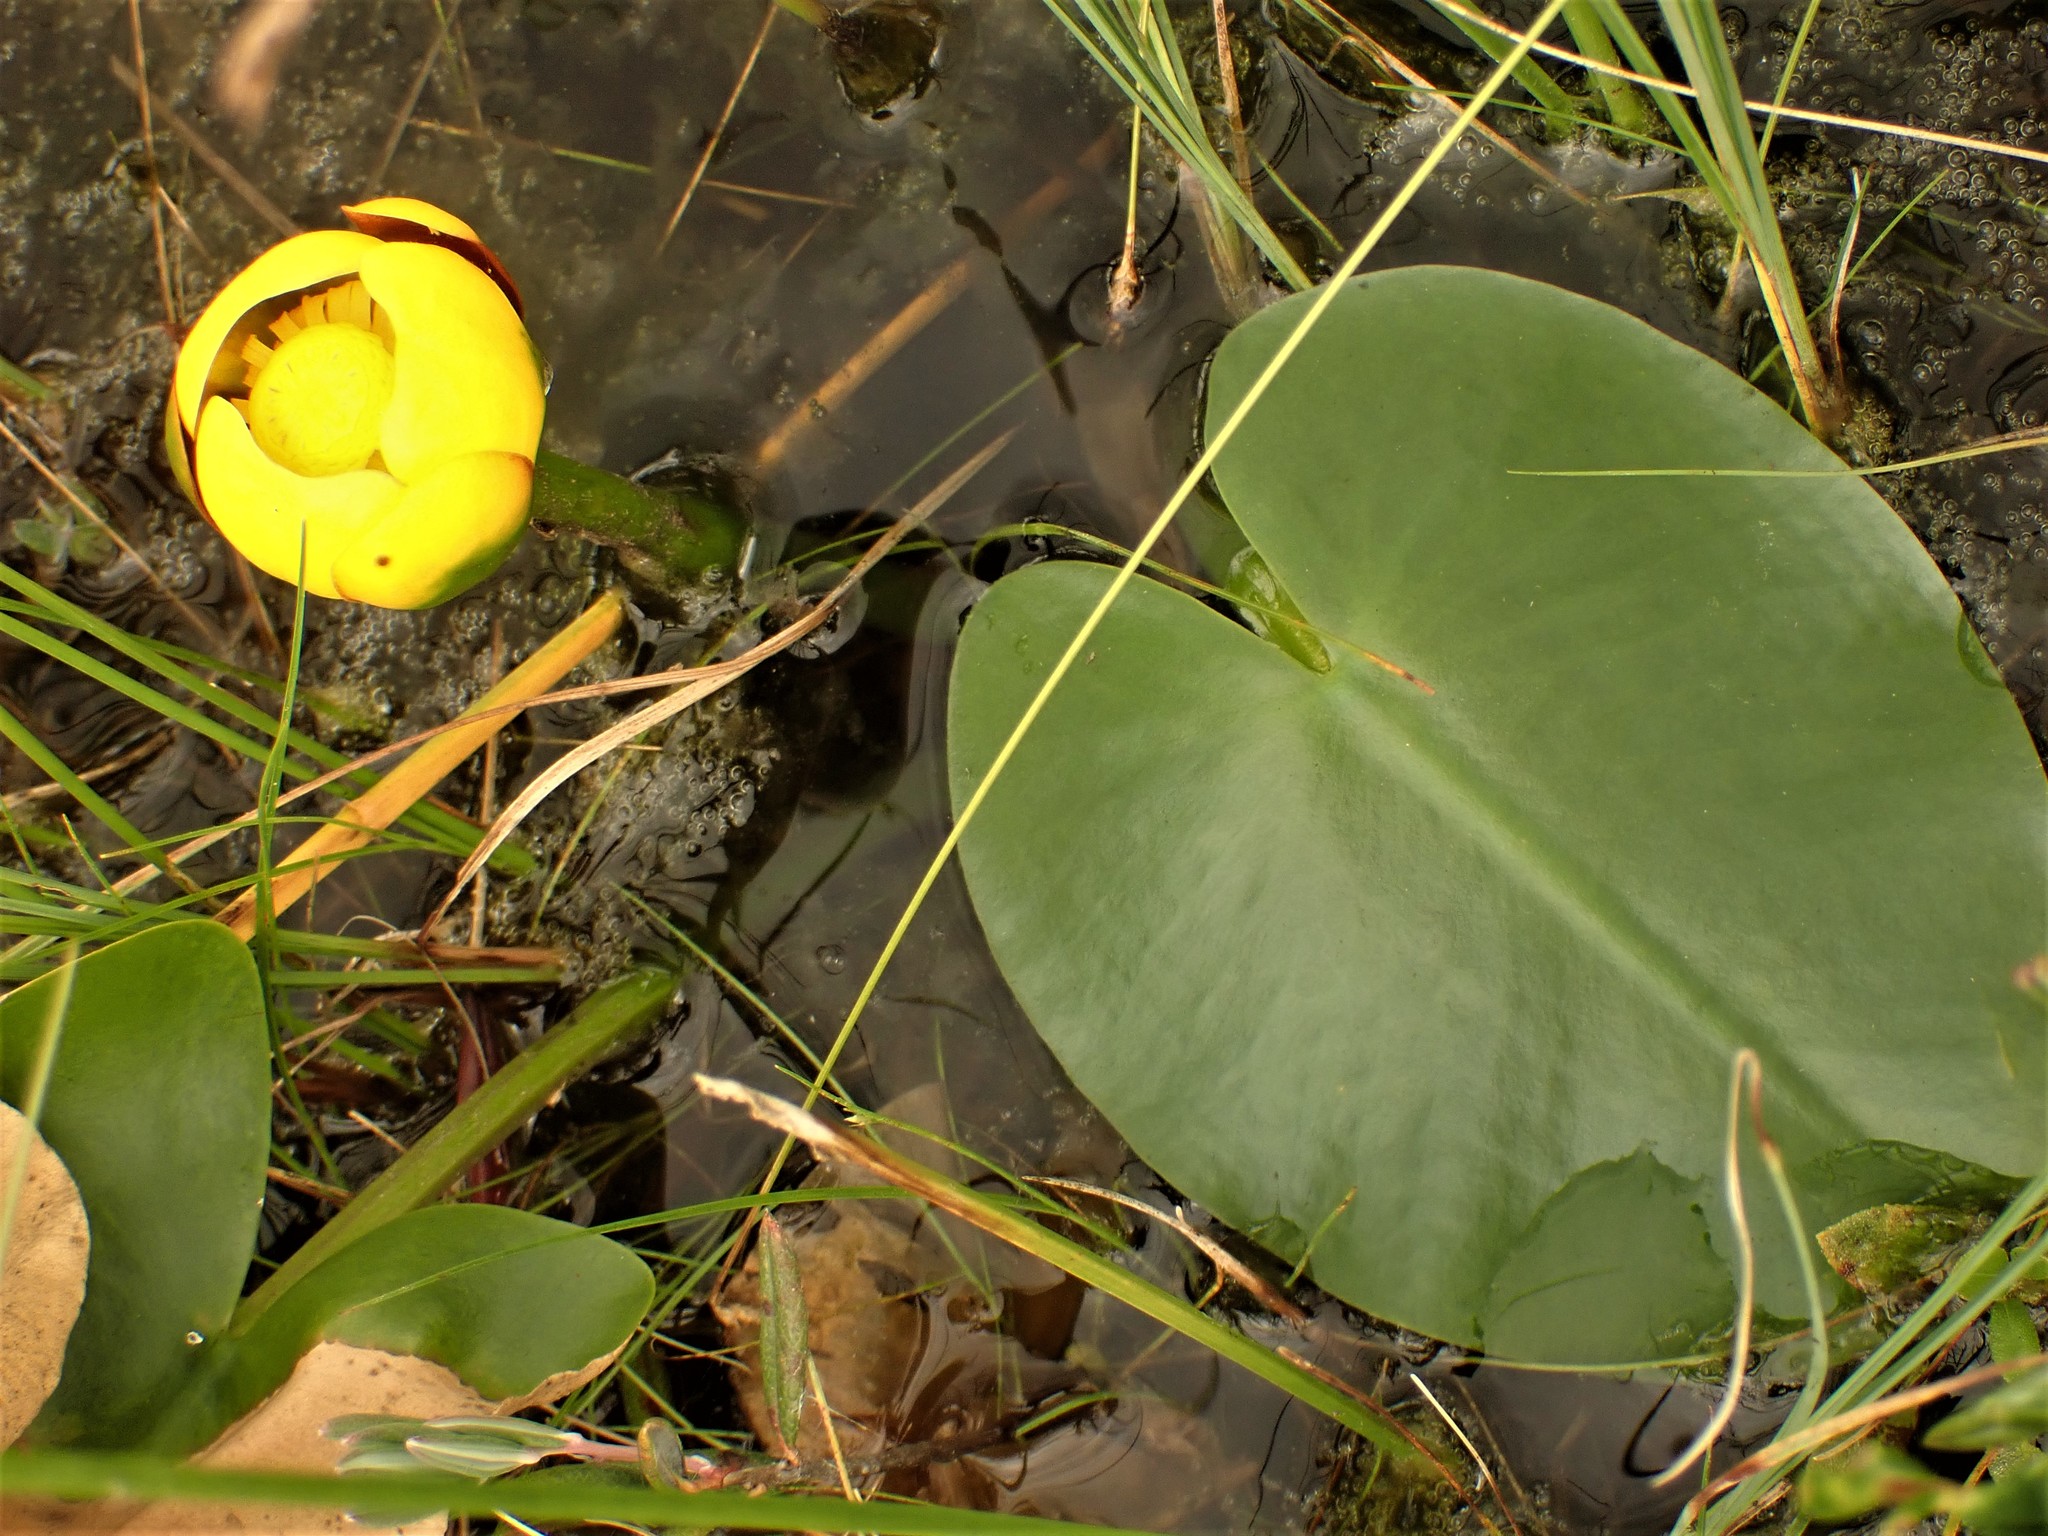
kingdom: Plantae
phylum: Tracheophyta
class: Magnoliopsida
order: Nymphaeales
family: Nymphaeaceae
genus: Nuphar
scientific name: Nuphar variegata
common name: Beaver-root
